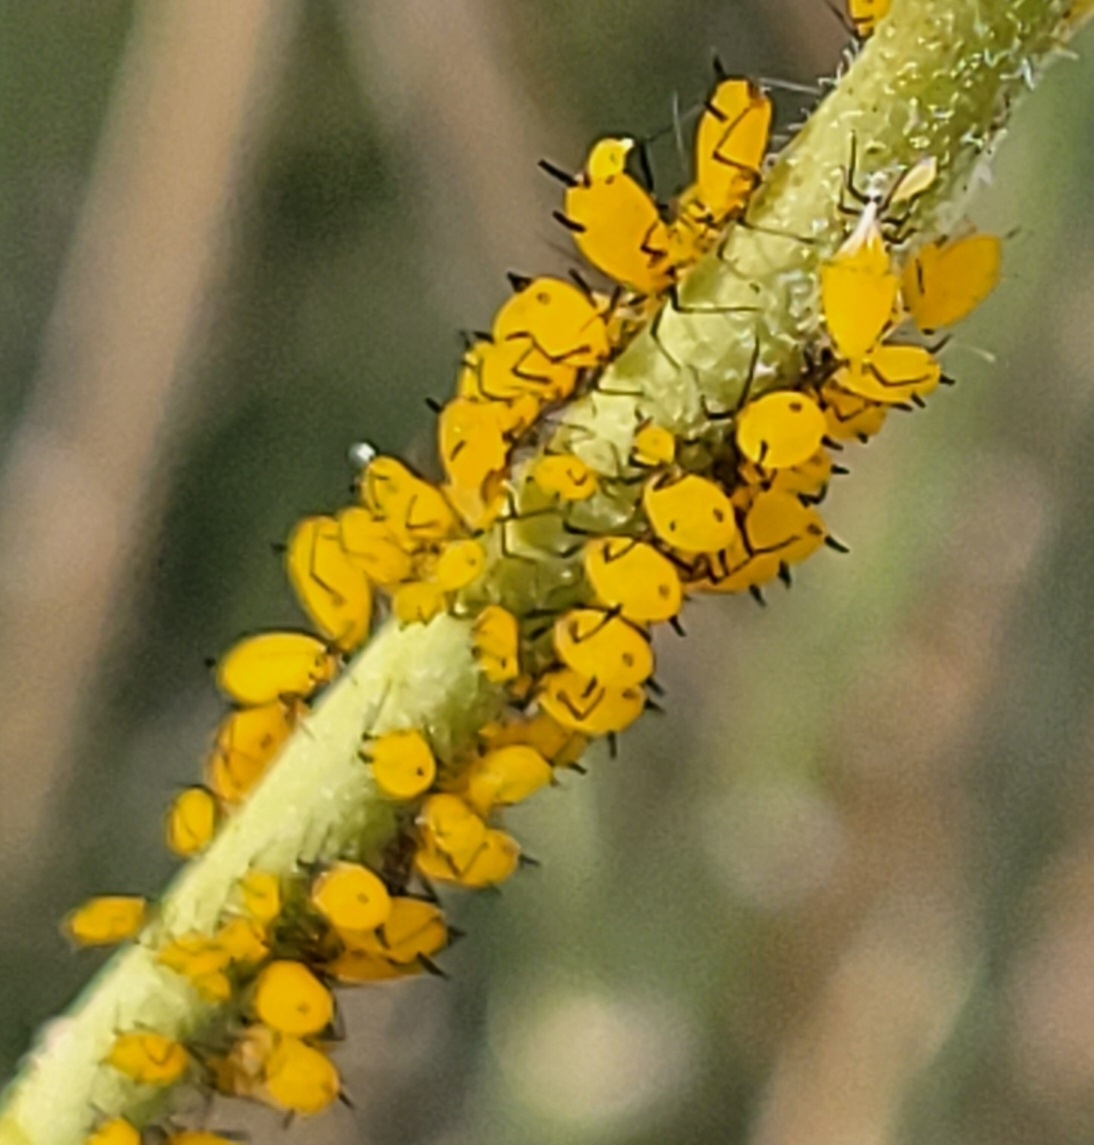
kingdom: Animalia
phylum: Arthropoda
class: Insecta
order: Hemiptera
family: Aphididae
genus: Aphis
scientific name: Aphis nerii
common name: Oleander aphid
